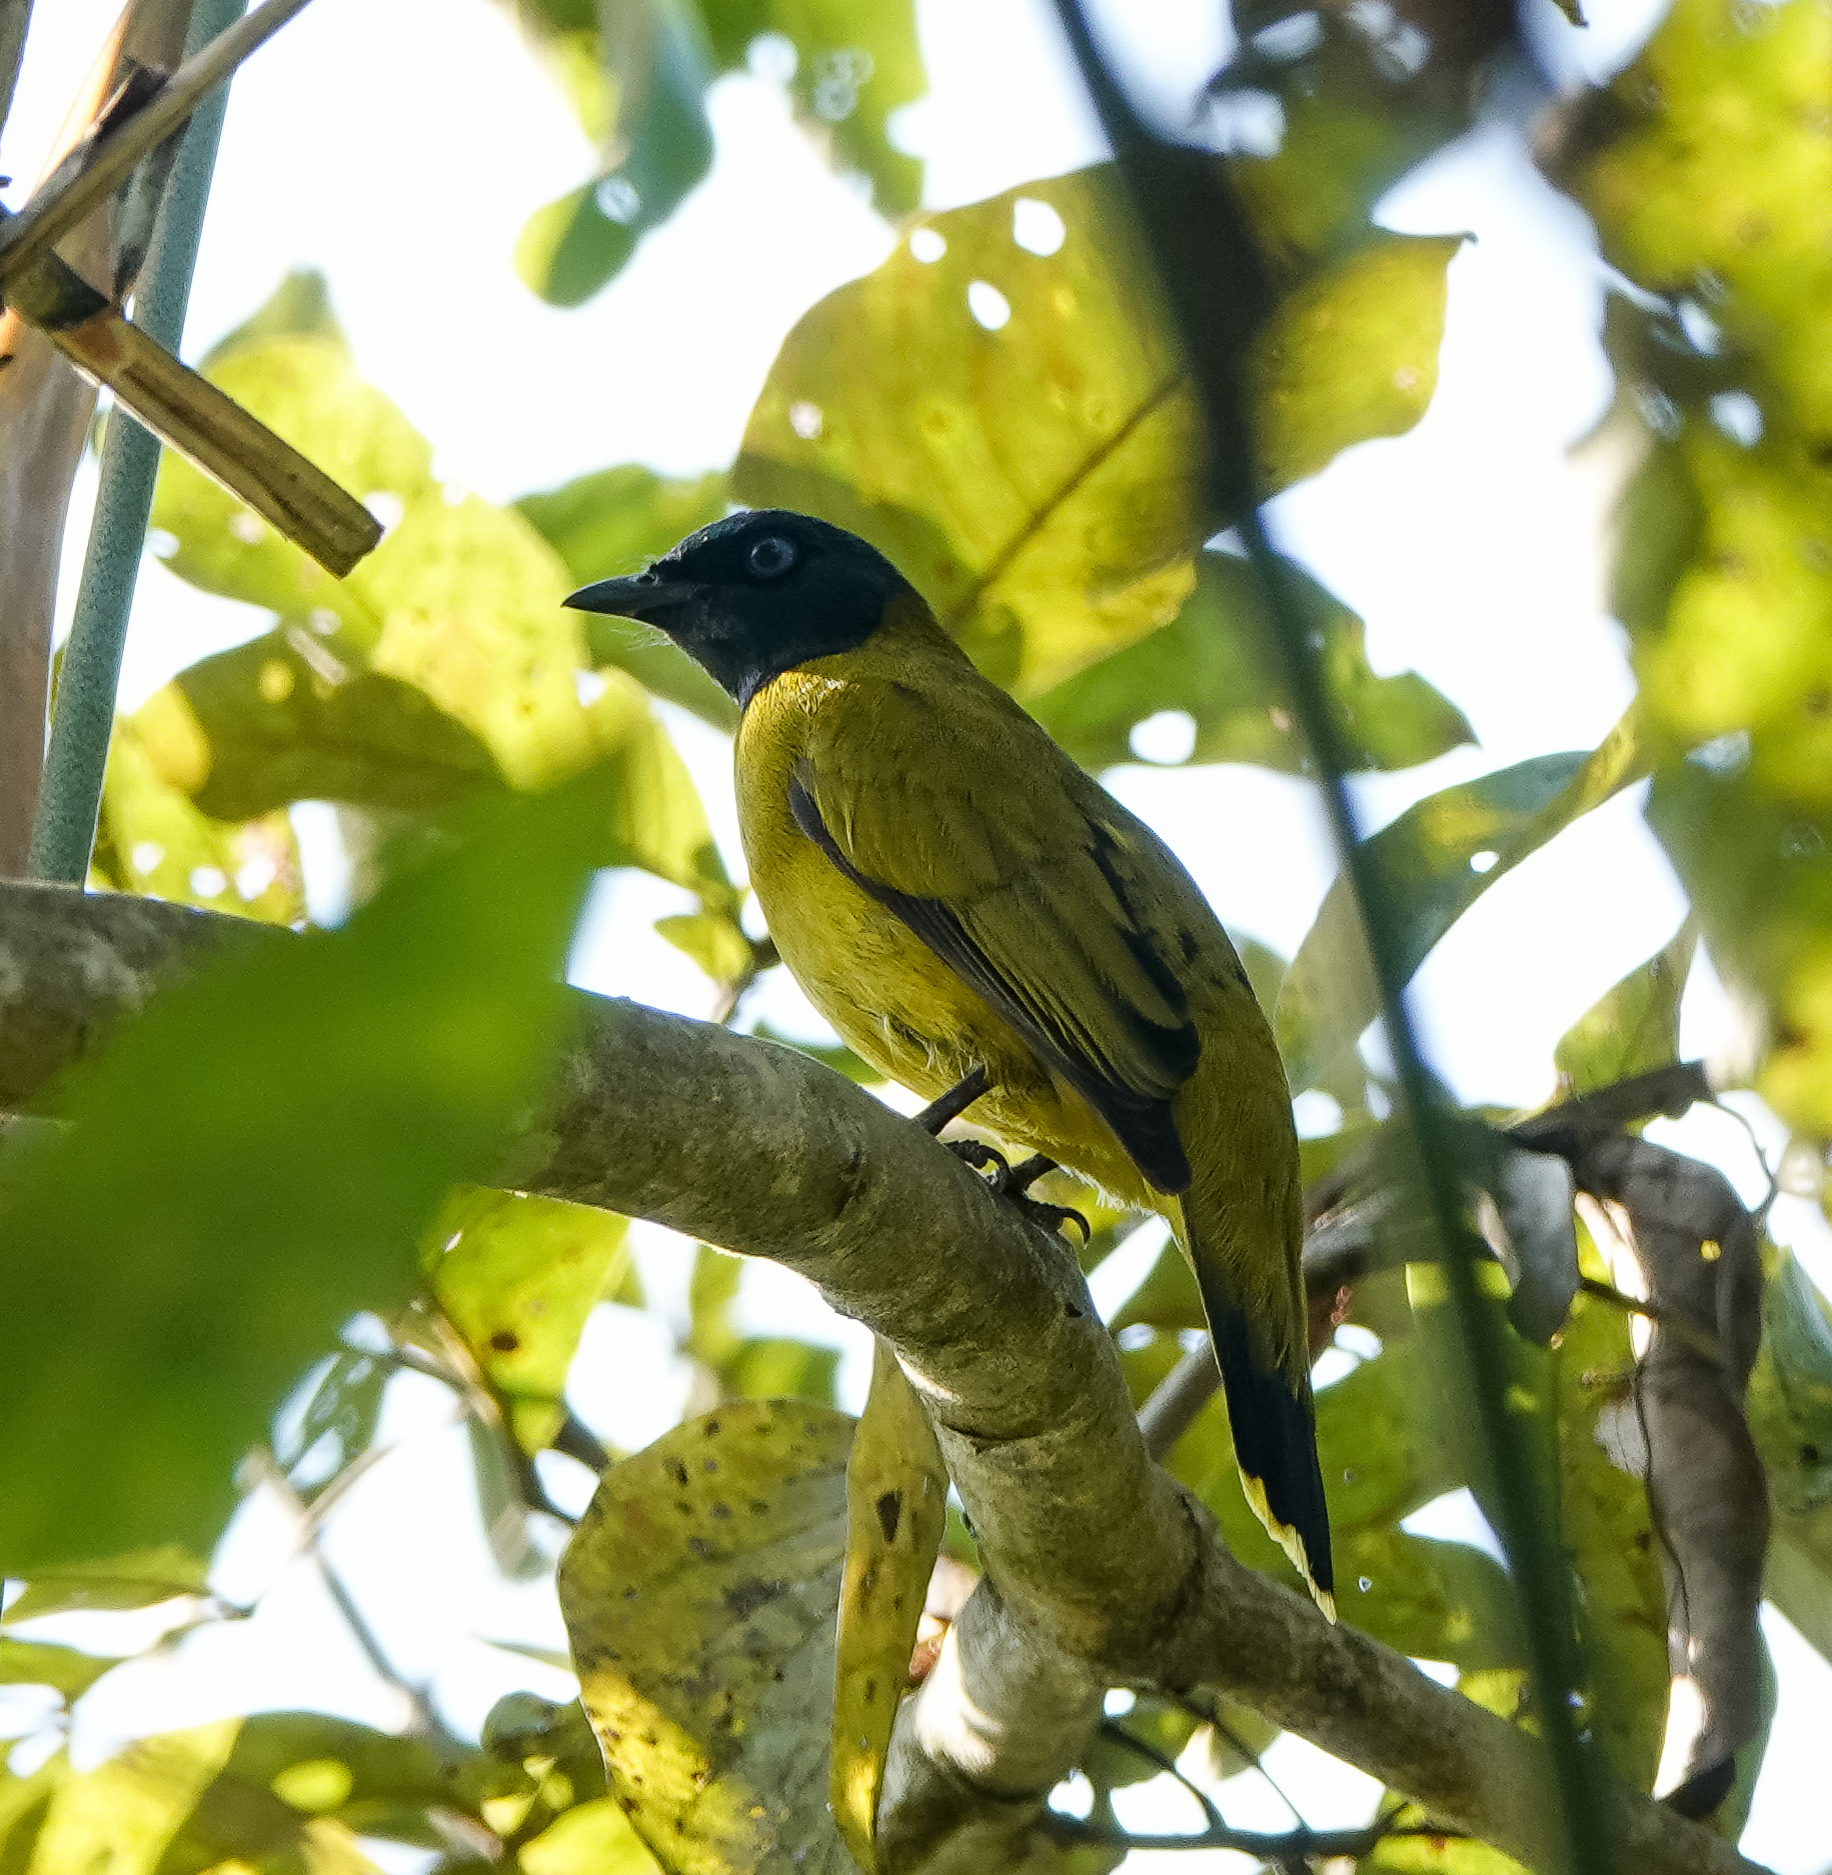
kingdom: Animalia
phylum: Chordata
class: Aves
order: Passeriformes
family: Pycnonotidae
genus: Microtarsus
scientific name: Microtarsus
